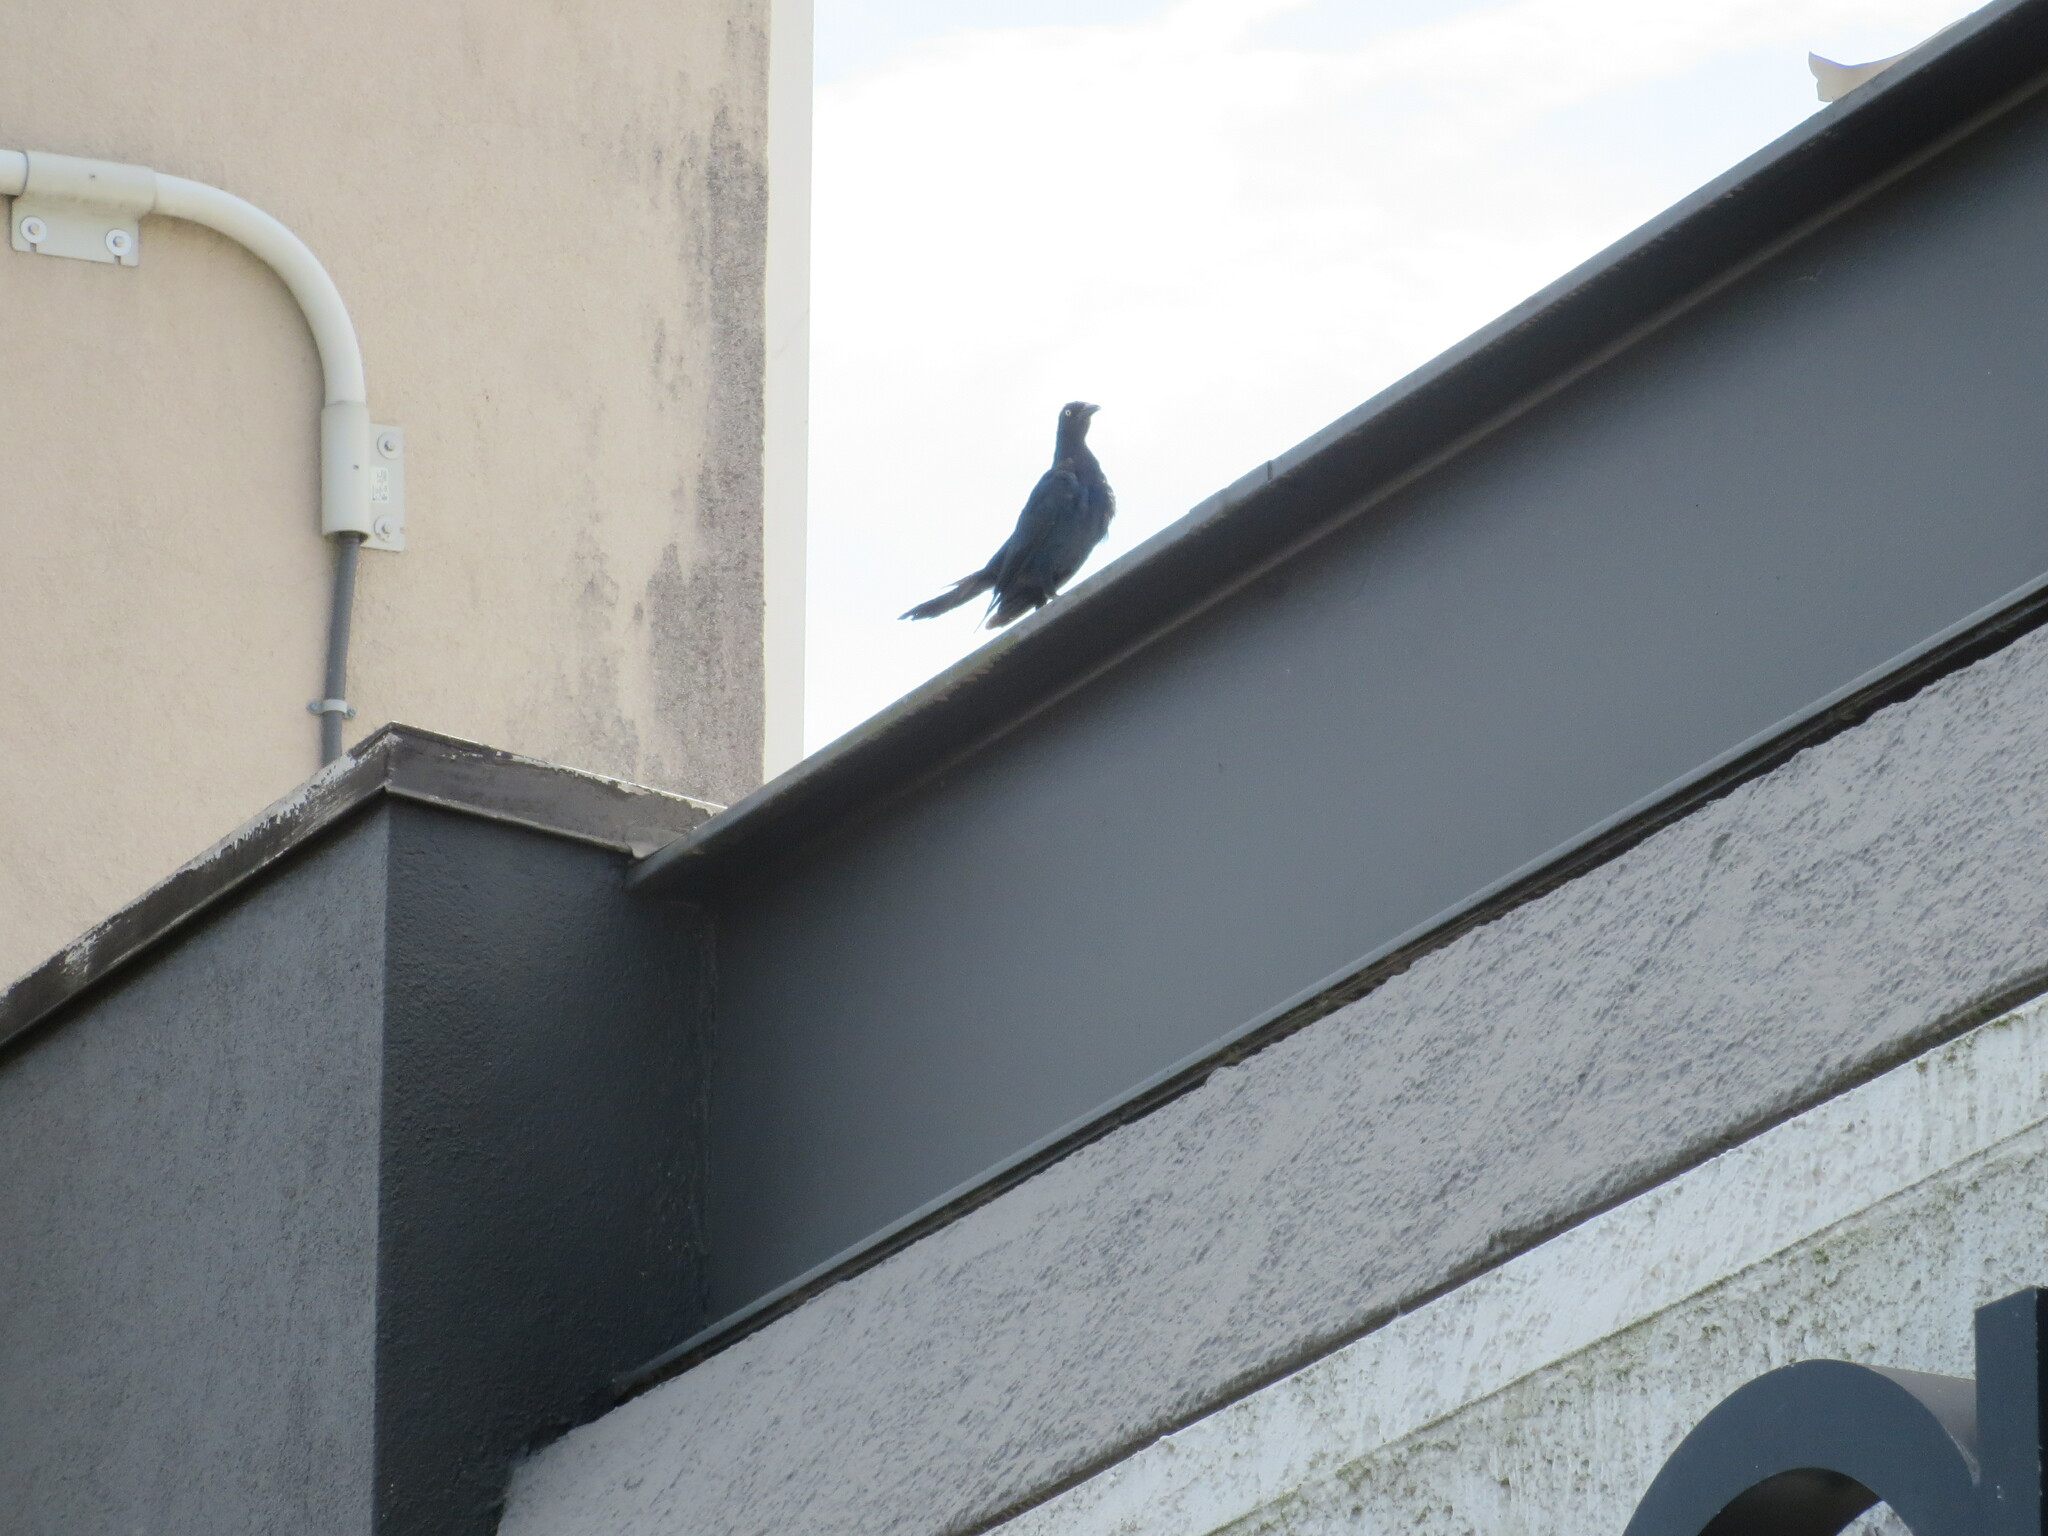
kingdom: Animalia
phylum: Chordata
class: Aves
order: Passeriformes
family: Icteridae
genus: Quiscalus
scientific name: Quiscalus major
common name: Boat-tailed grackle
